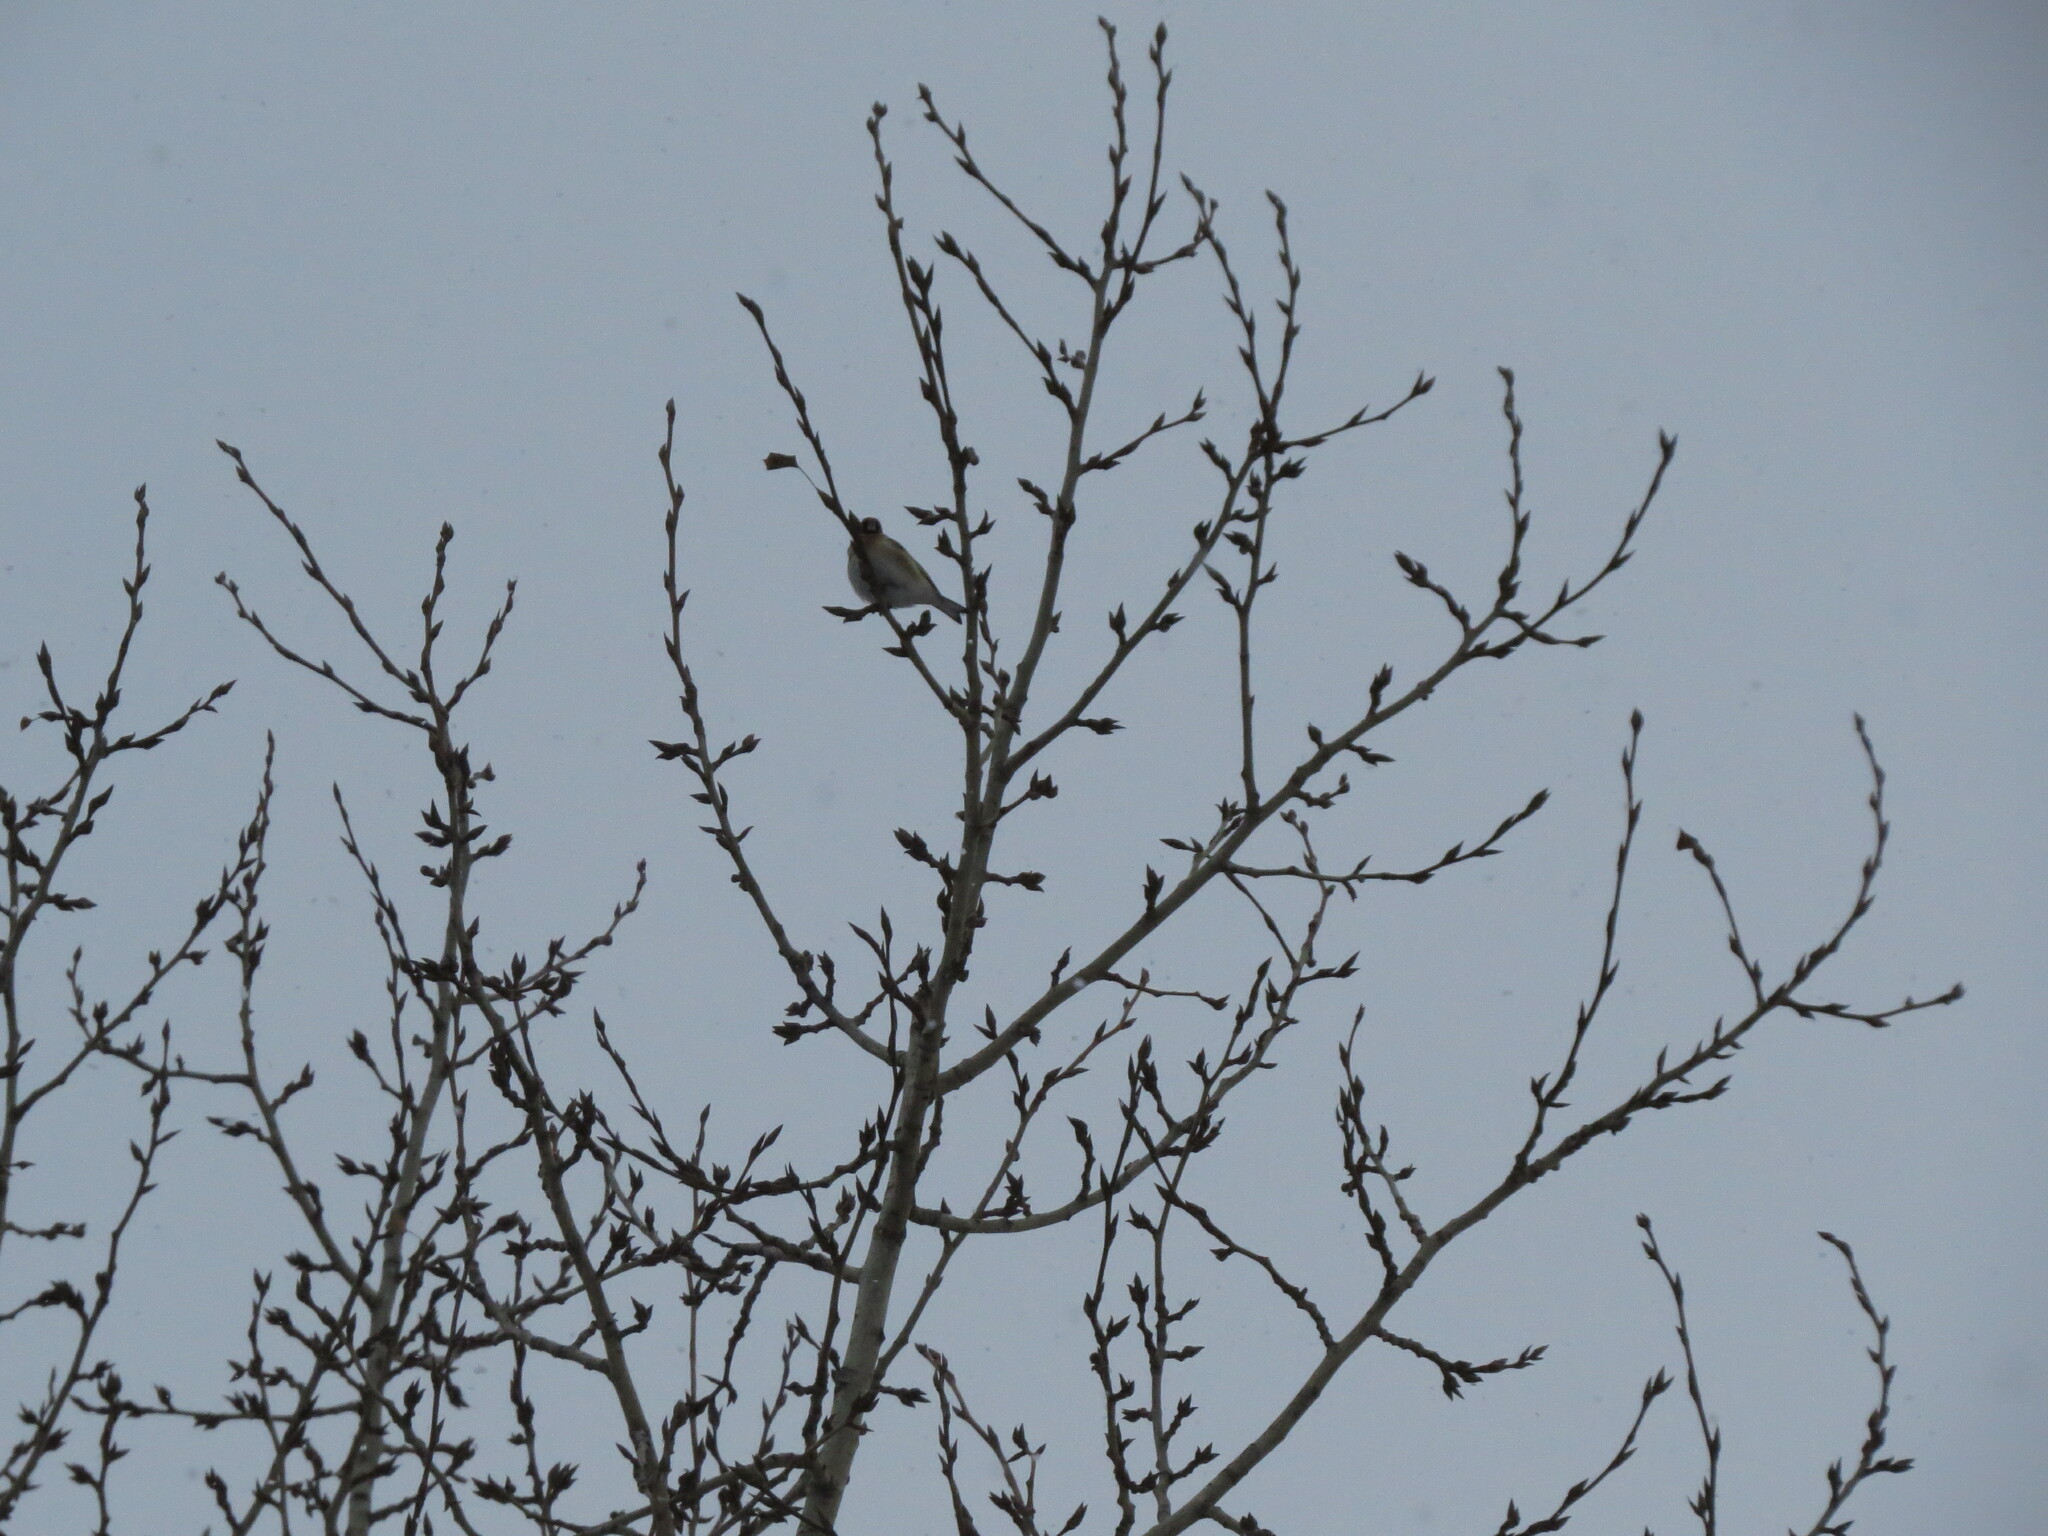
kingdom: Animalia
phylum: Chordata
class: Aves
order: Passeriformes
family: Fringillidae
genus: Carduelis
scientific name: Carduelis carduelis
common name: European goldfinch
